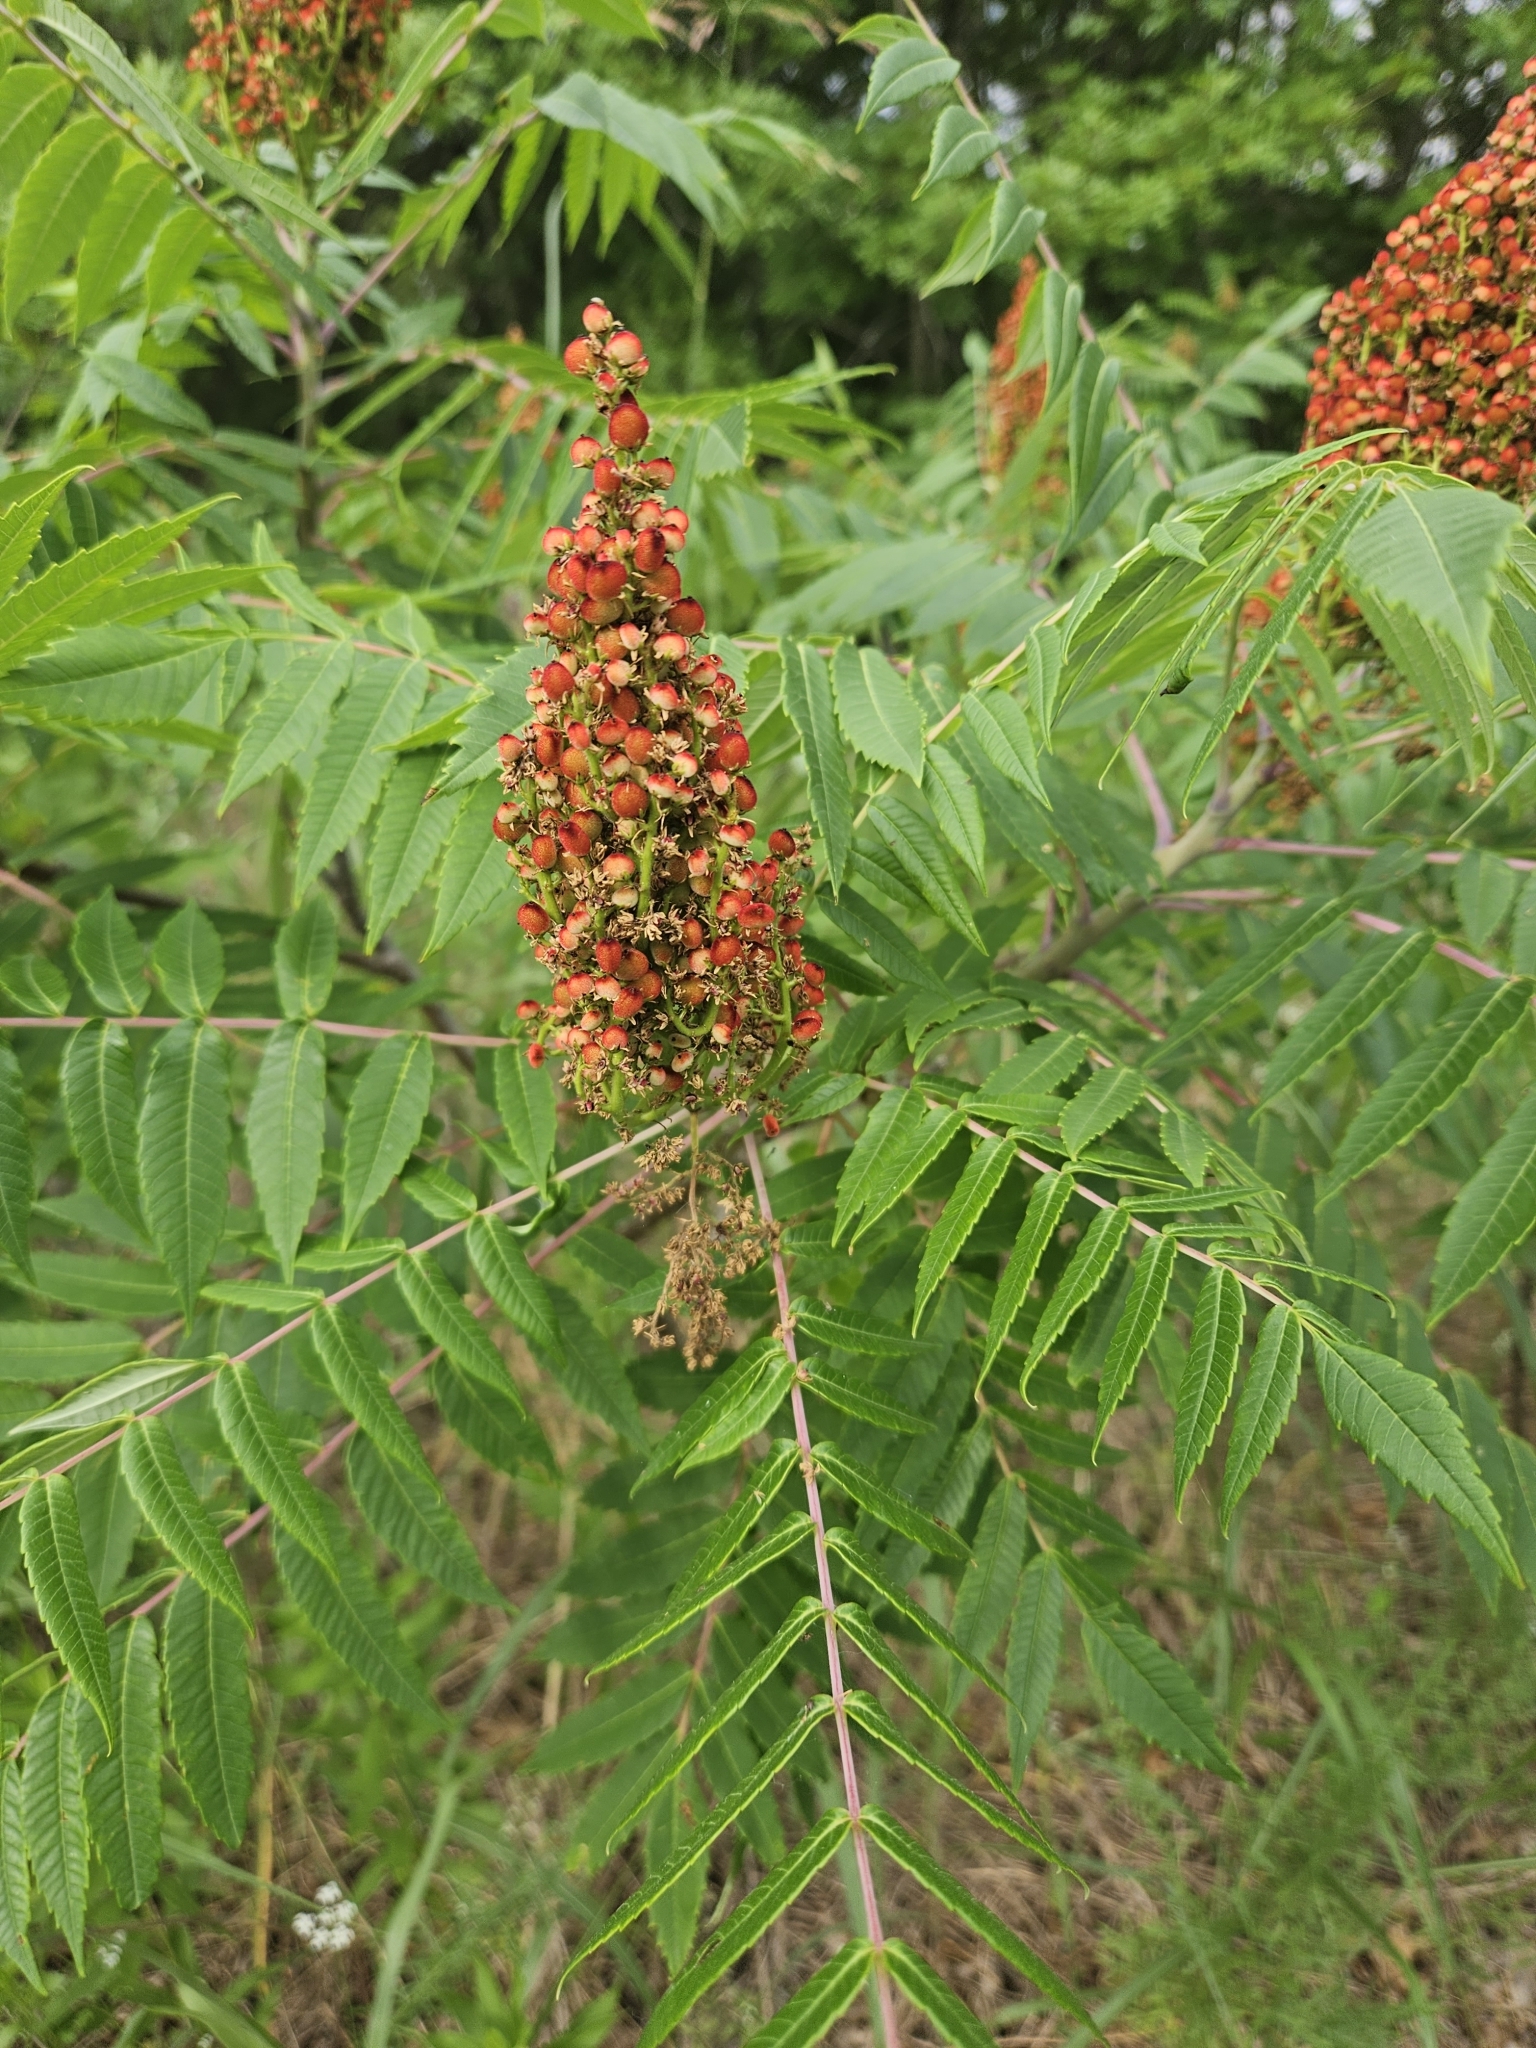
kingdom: Plantae
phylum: Tracheophyta
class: Magnoliopsida
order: Sapindales
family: Anacardiaceae
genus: Rhus
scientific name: Rhus glabra
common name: Scarlet sumac
